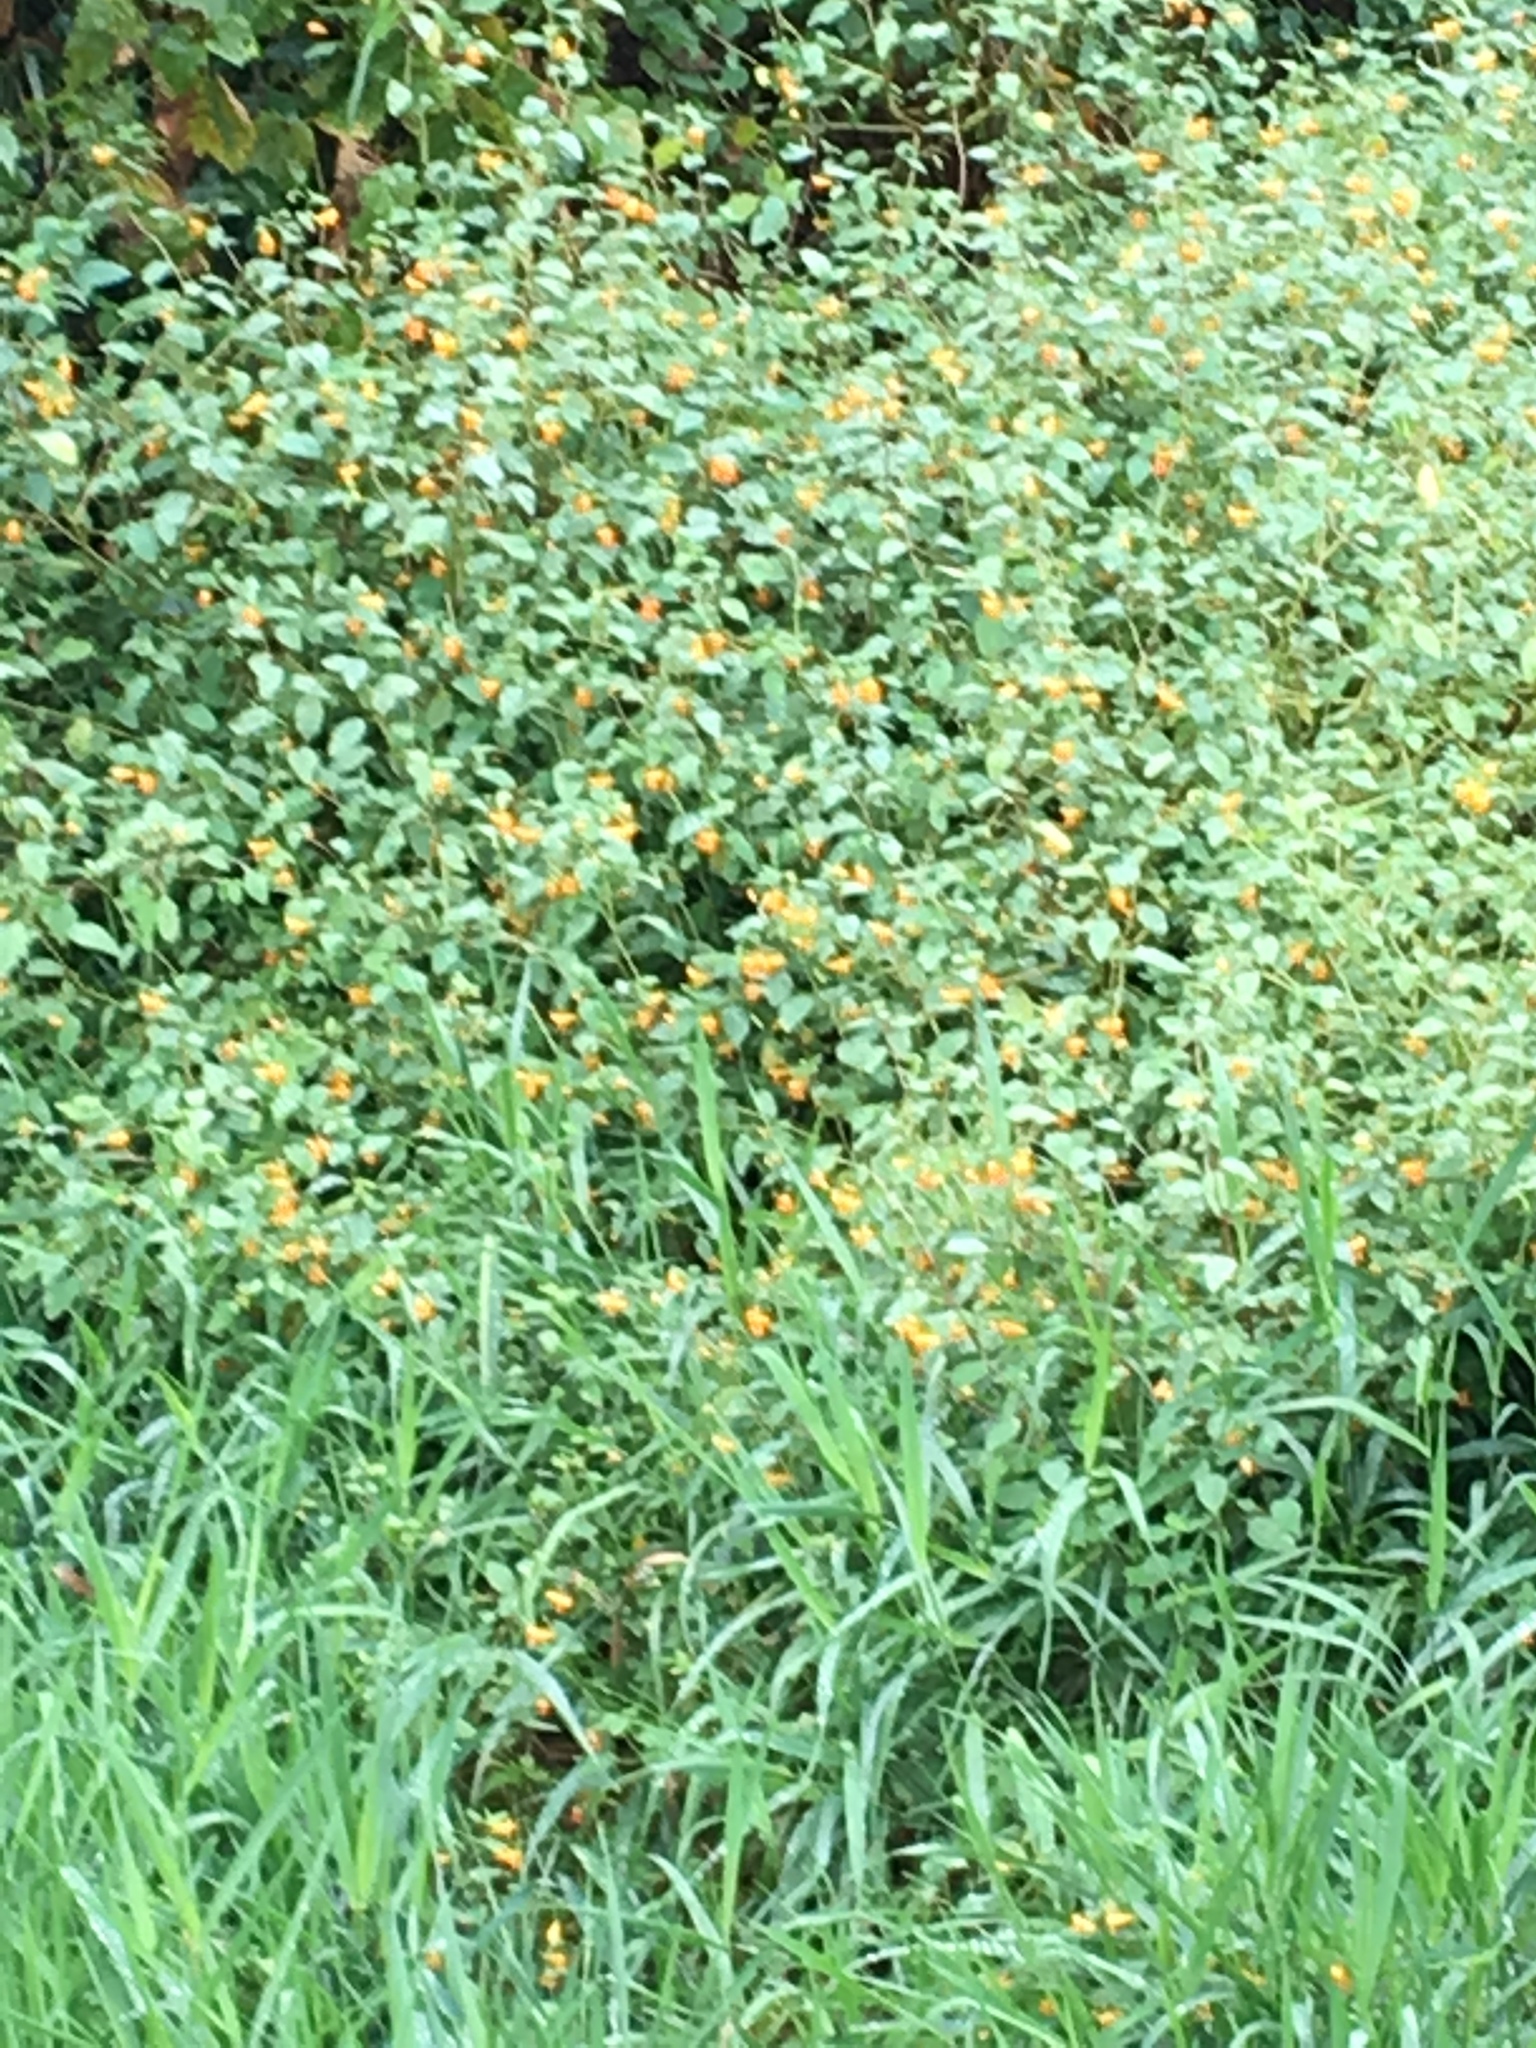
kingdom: Plantae
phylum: Tracheophyta
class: Magnoliopsida
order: Ericales
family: Balsaminaceae
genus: Impatiens
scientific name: Impatiens capensis
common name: Orange balsam
